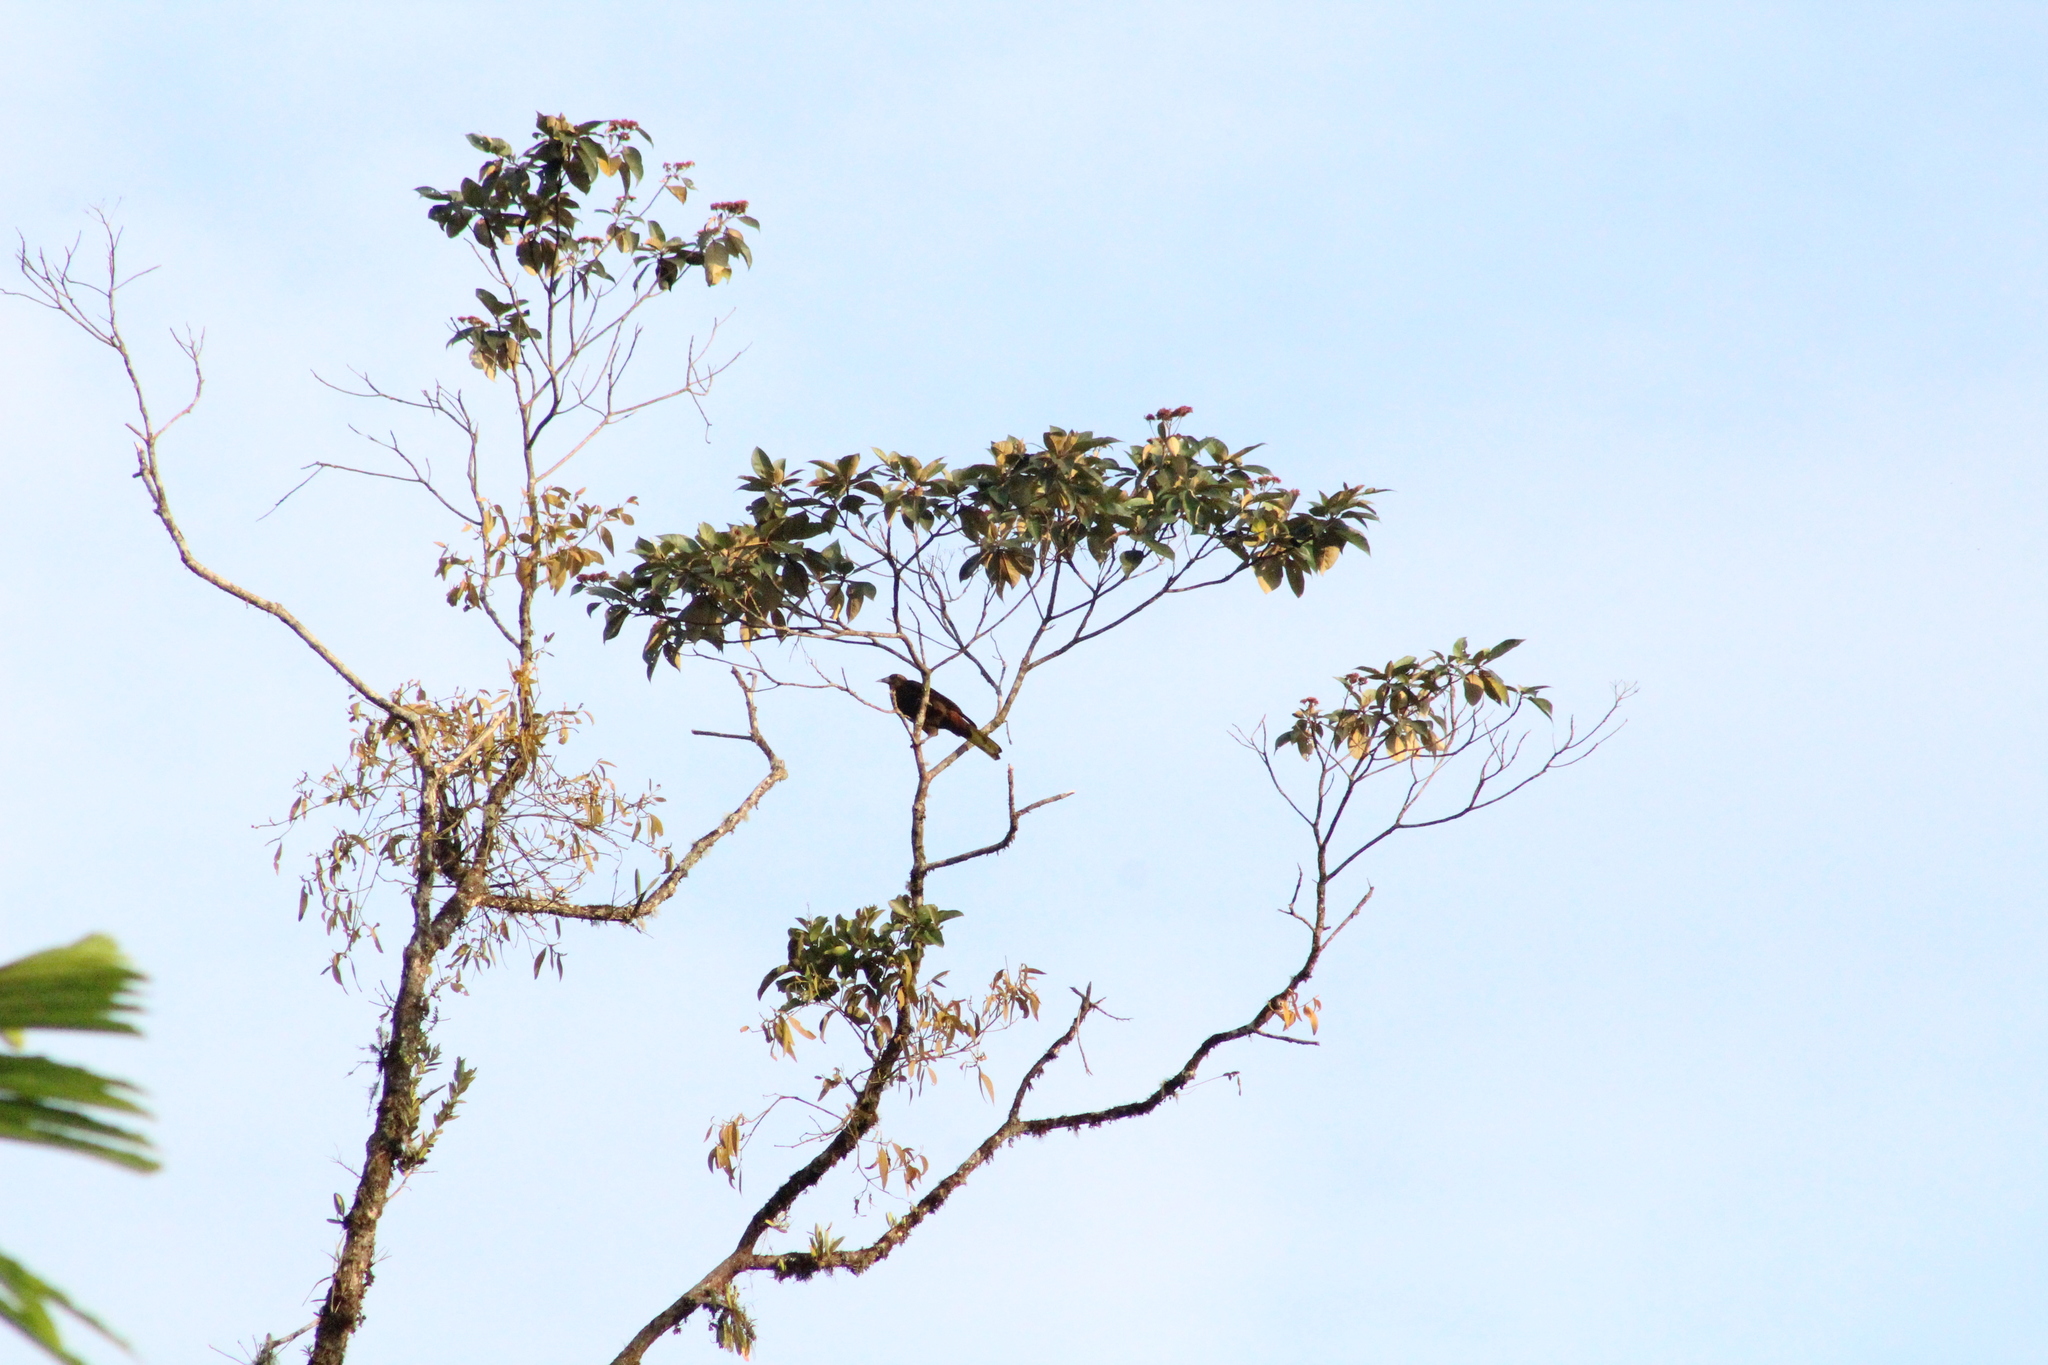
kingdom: Animalia
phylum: Chordata
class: Aves
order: Passeriformes
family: Icteridae
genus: Psarocolius
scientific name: Psarocolius angustifrons
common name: Russet-backed oropendola
